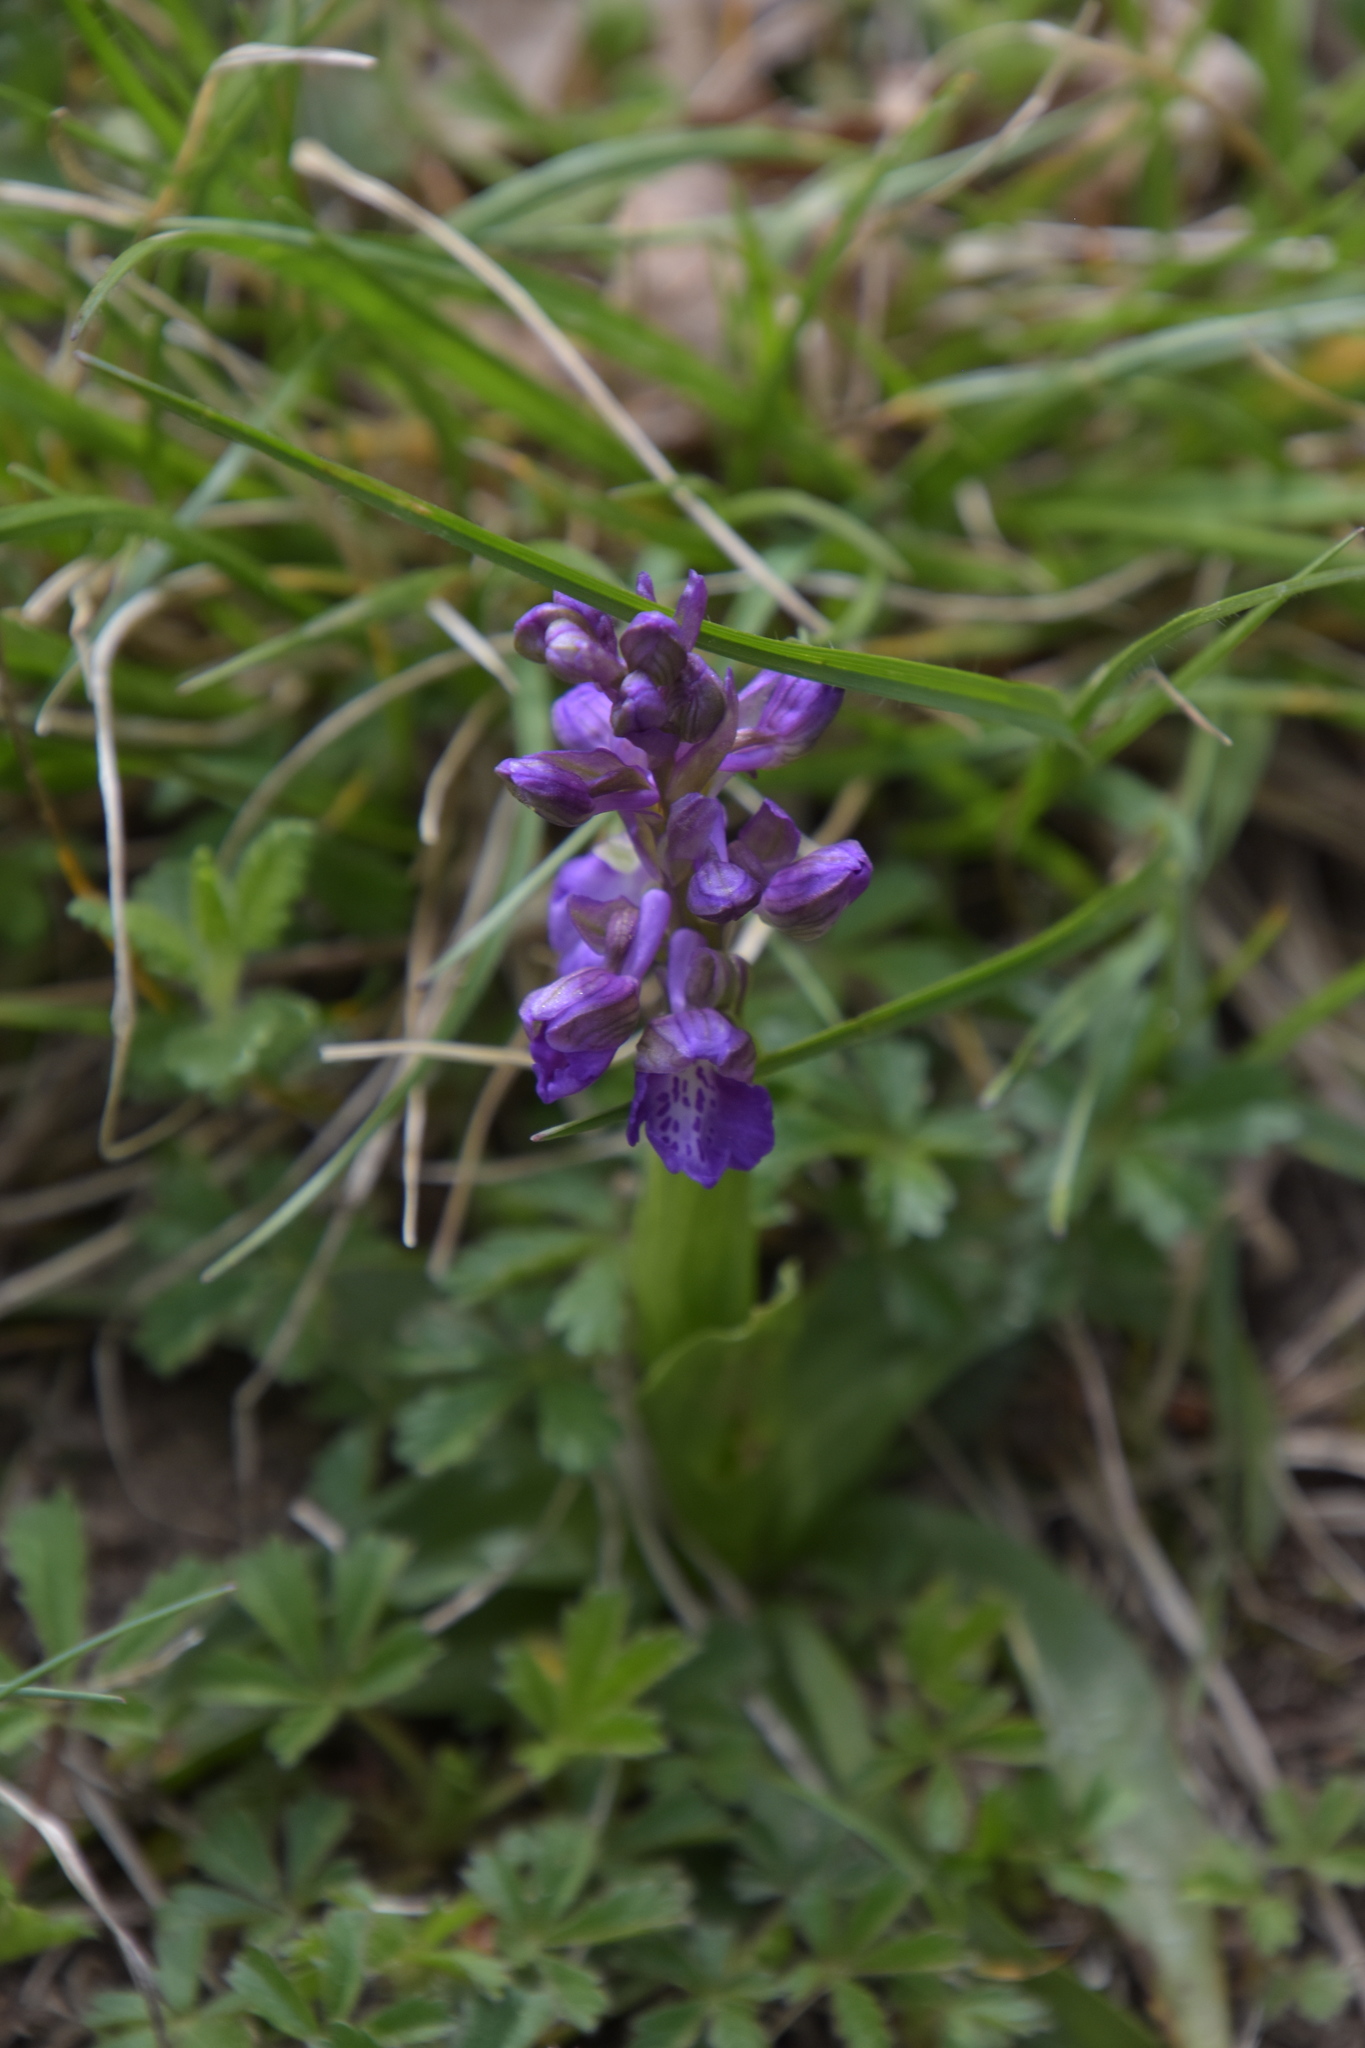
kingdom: Plantae
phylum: Tracheophyta
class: Liliopsida
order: Asparagales
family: Orchidaceae
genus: Anacamptis
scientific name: Anacamptis morio
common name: Green-winged orchid
